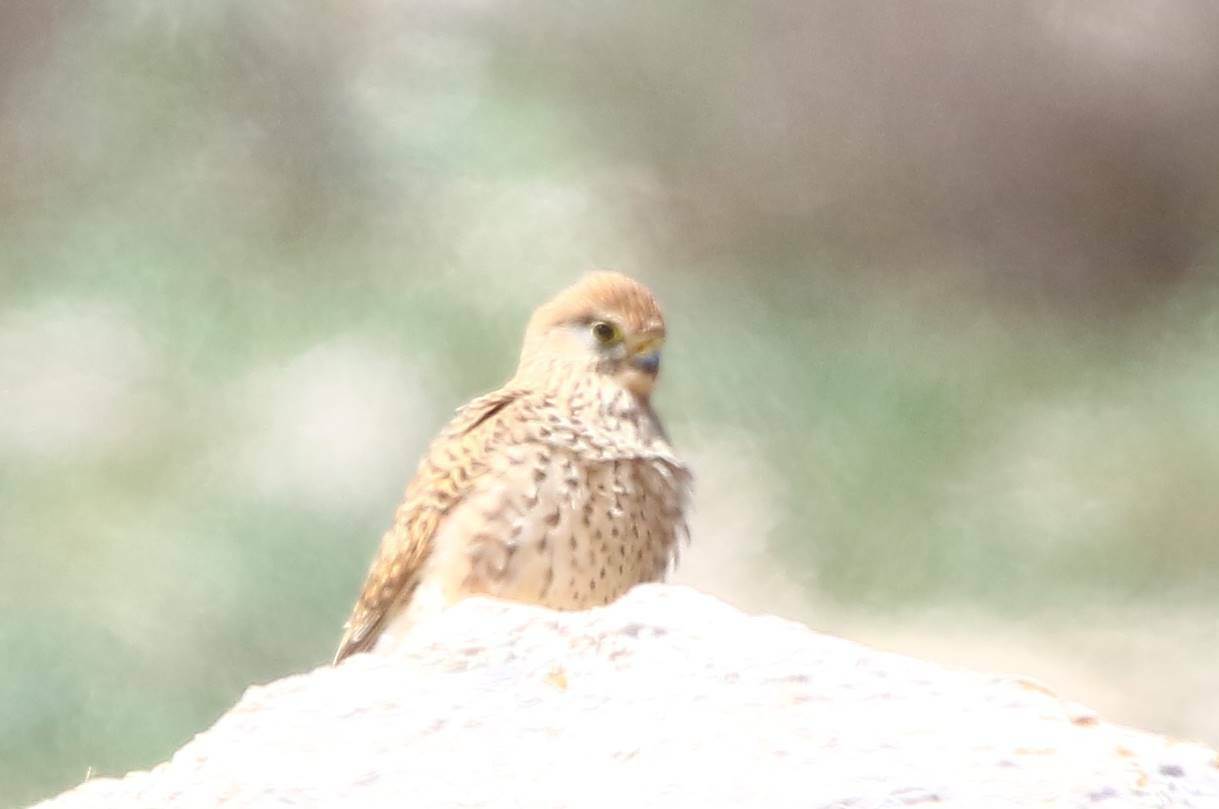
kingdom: Animalia
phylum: Chordata
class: Aves
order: Falconiformes
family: Falconidae
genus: Falco
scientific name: Falco tinnunculus
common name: Common kestrel
